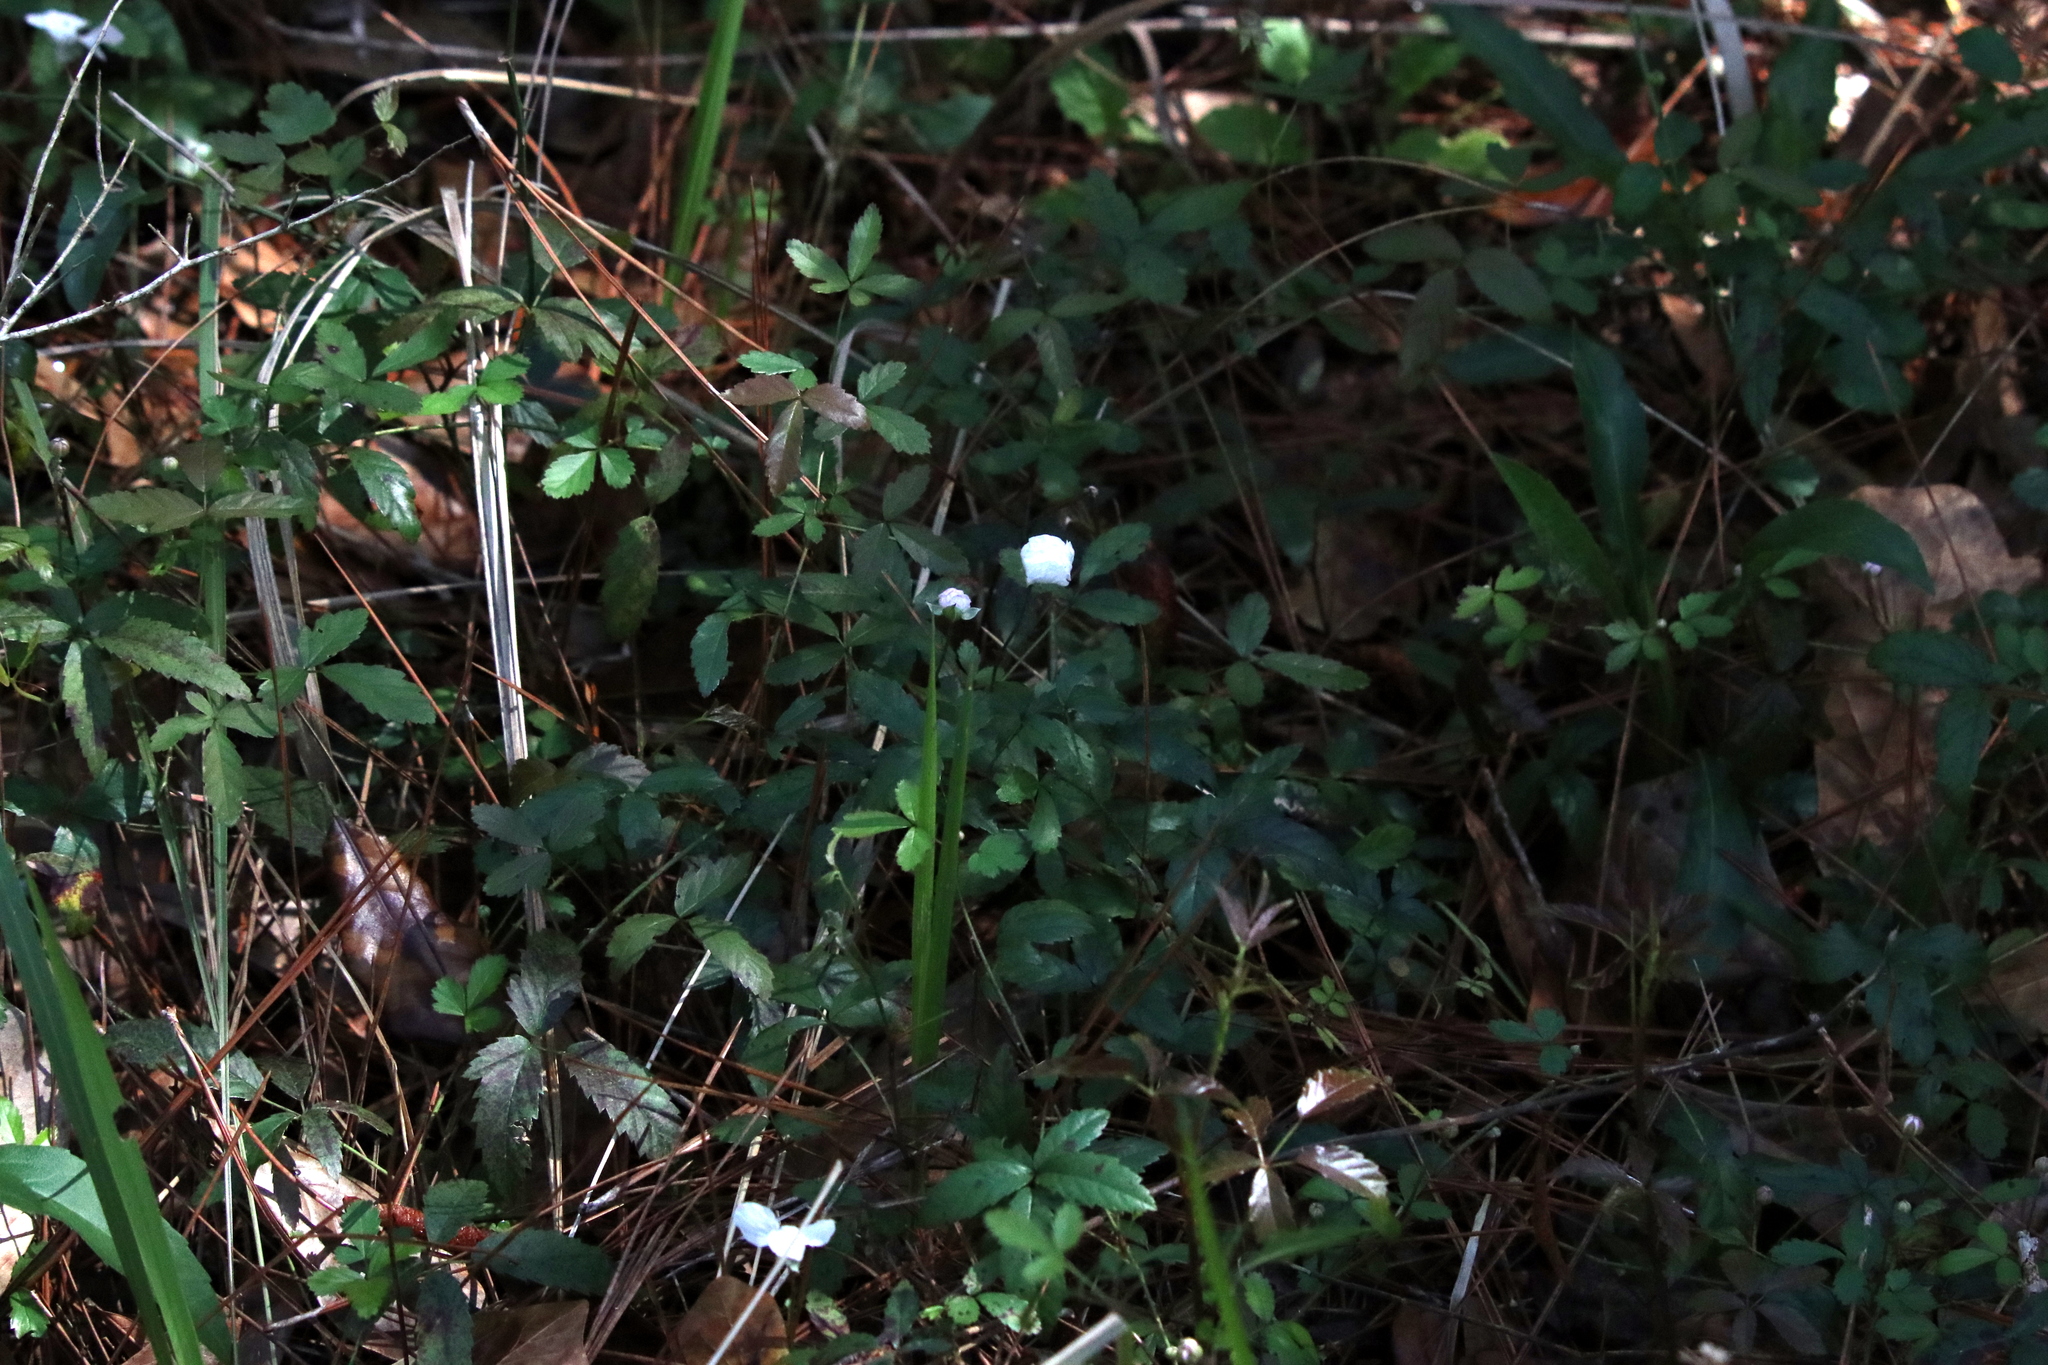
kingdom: Plantae
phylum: Tracheophyta
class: Magnoliopsida
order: Rosales
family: Rosaceae
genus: Rubus
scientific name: Rubus trivialis
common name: Southern dewberry
